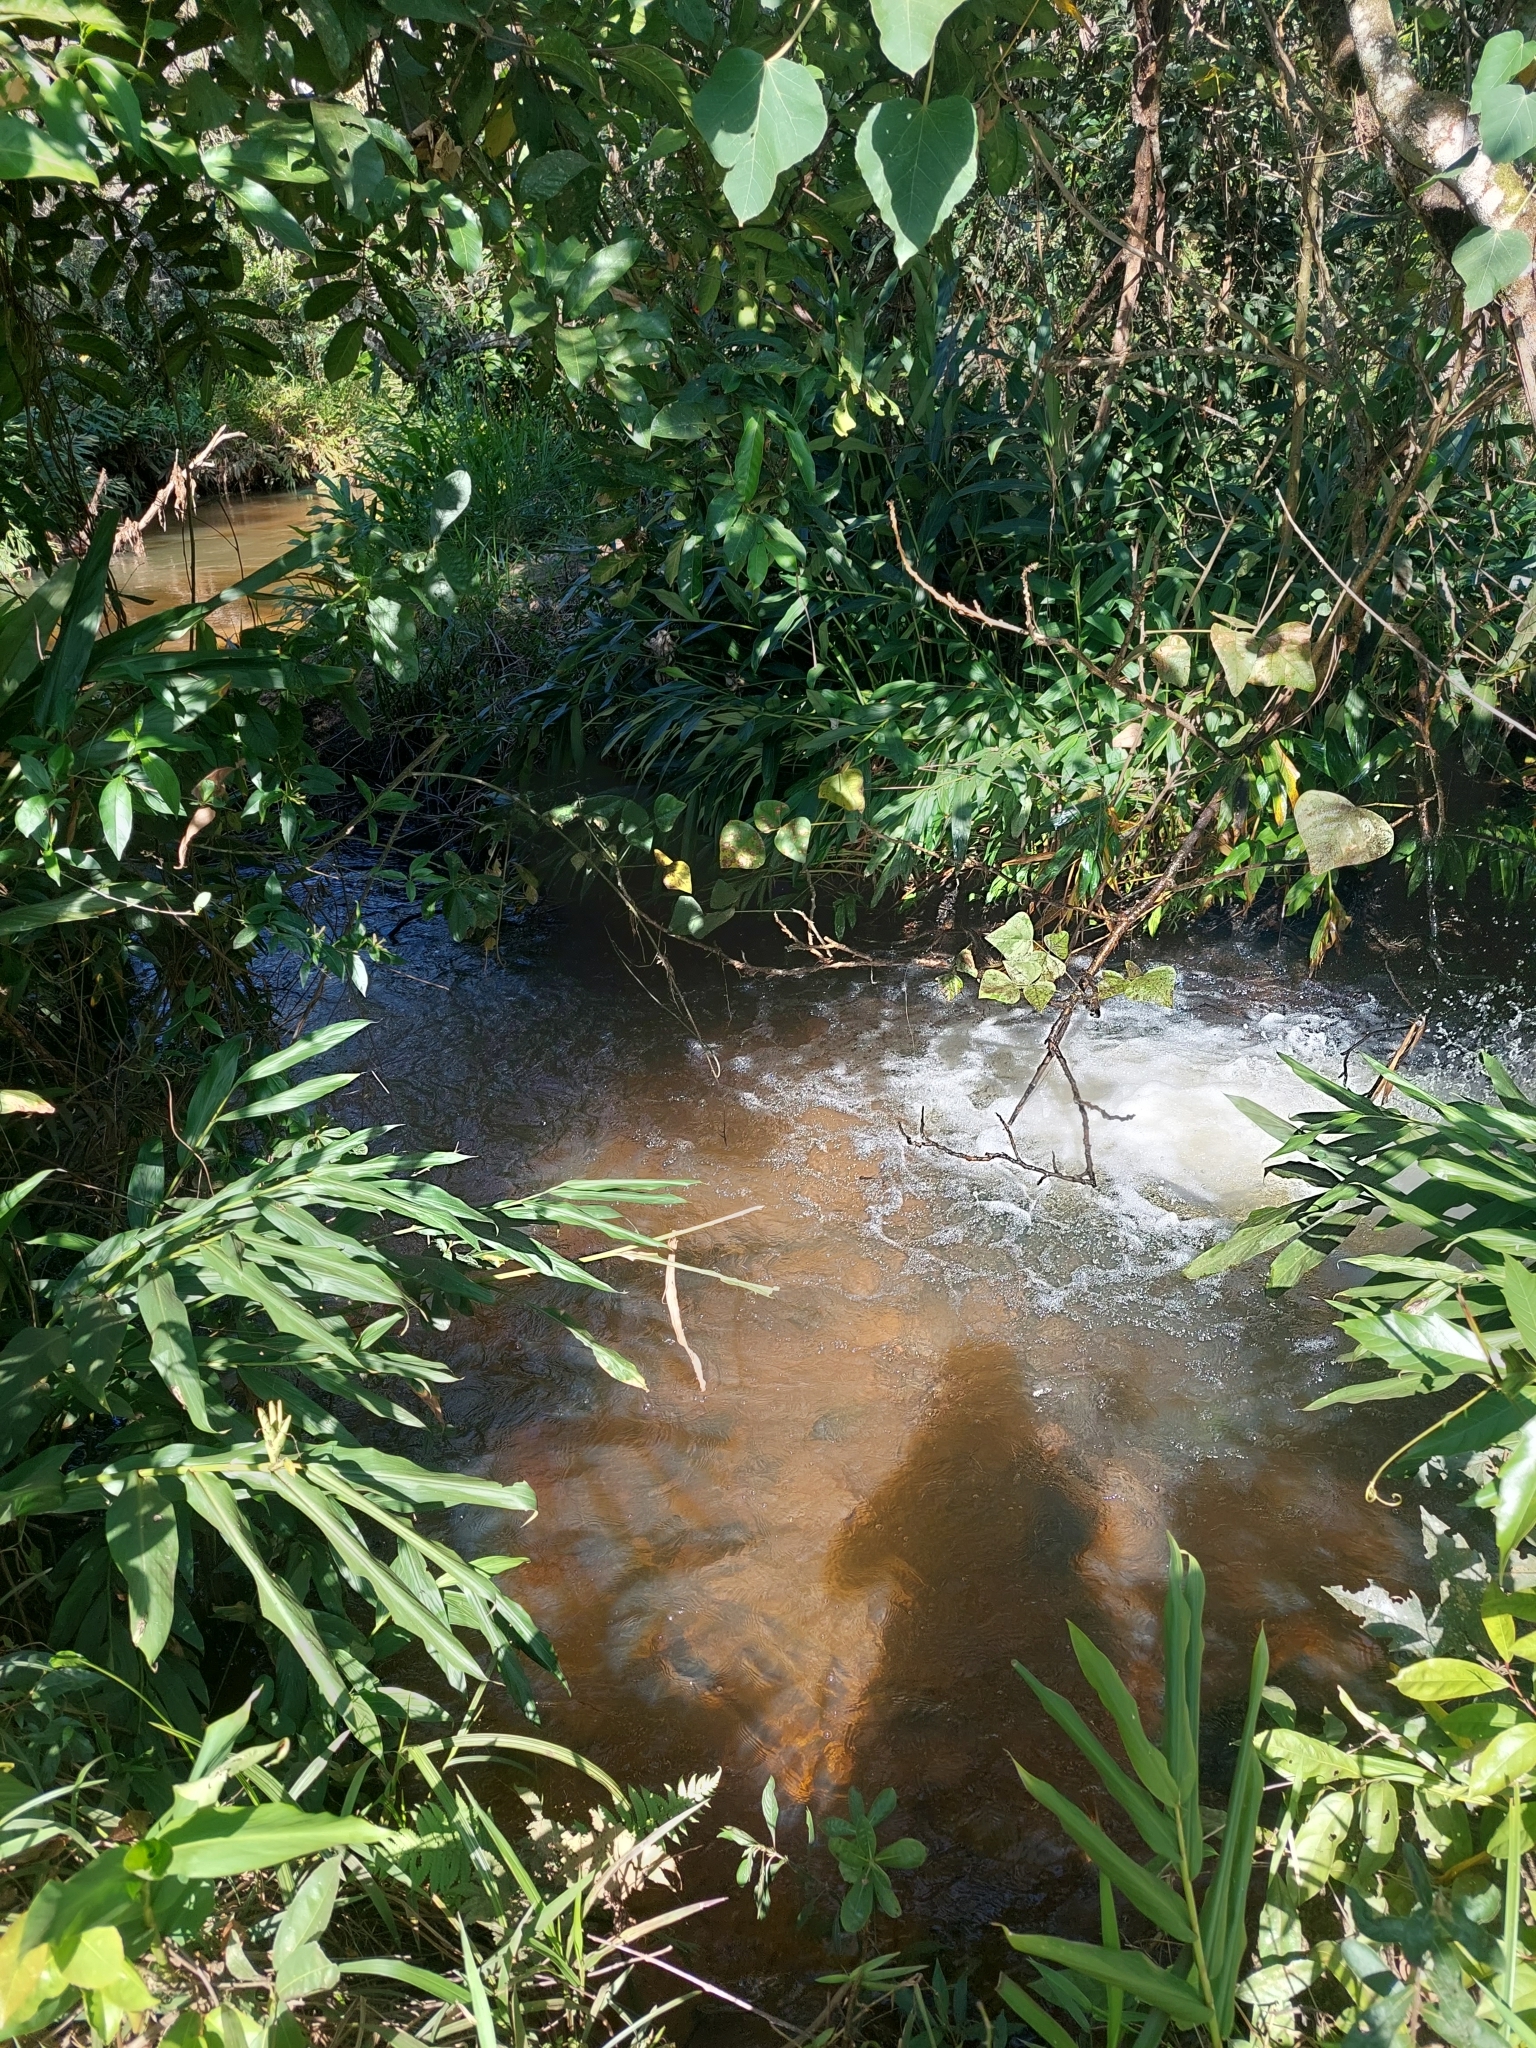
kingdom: Plantae
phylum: Tracheophyta
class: Liliopsida
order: Zingiberales
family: Zingiberaceae
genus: Hedychium
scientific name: Hedychium coronarium
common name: White garland-lily
